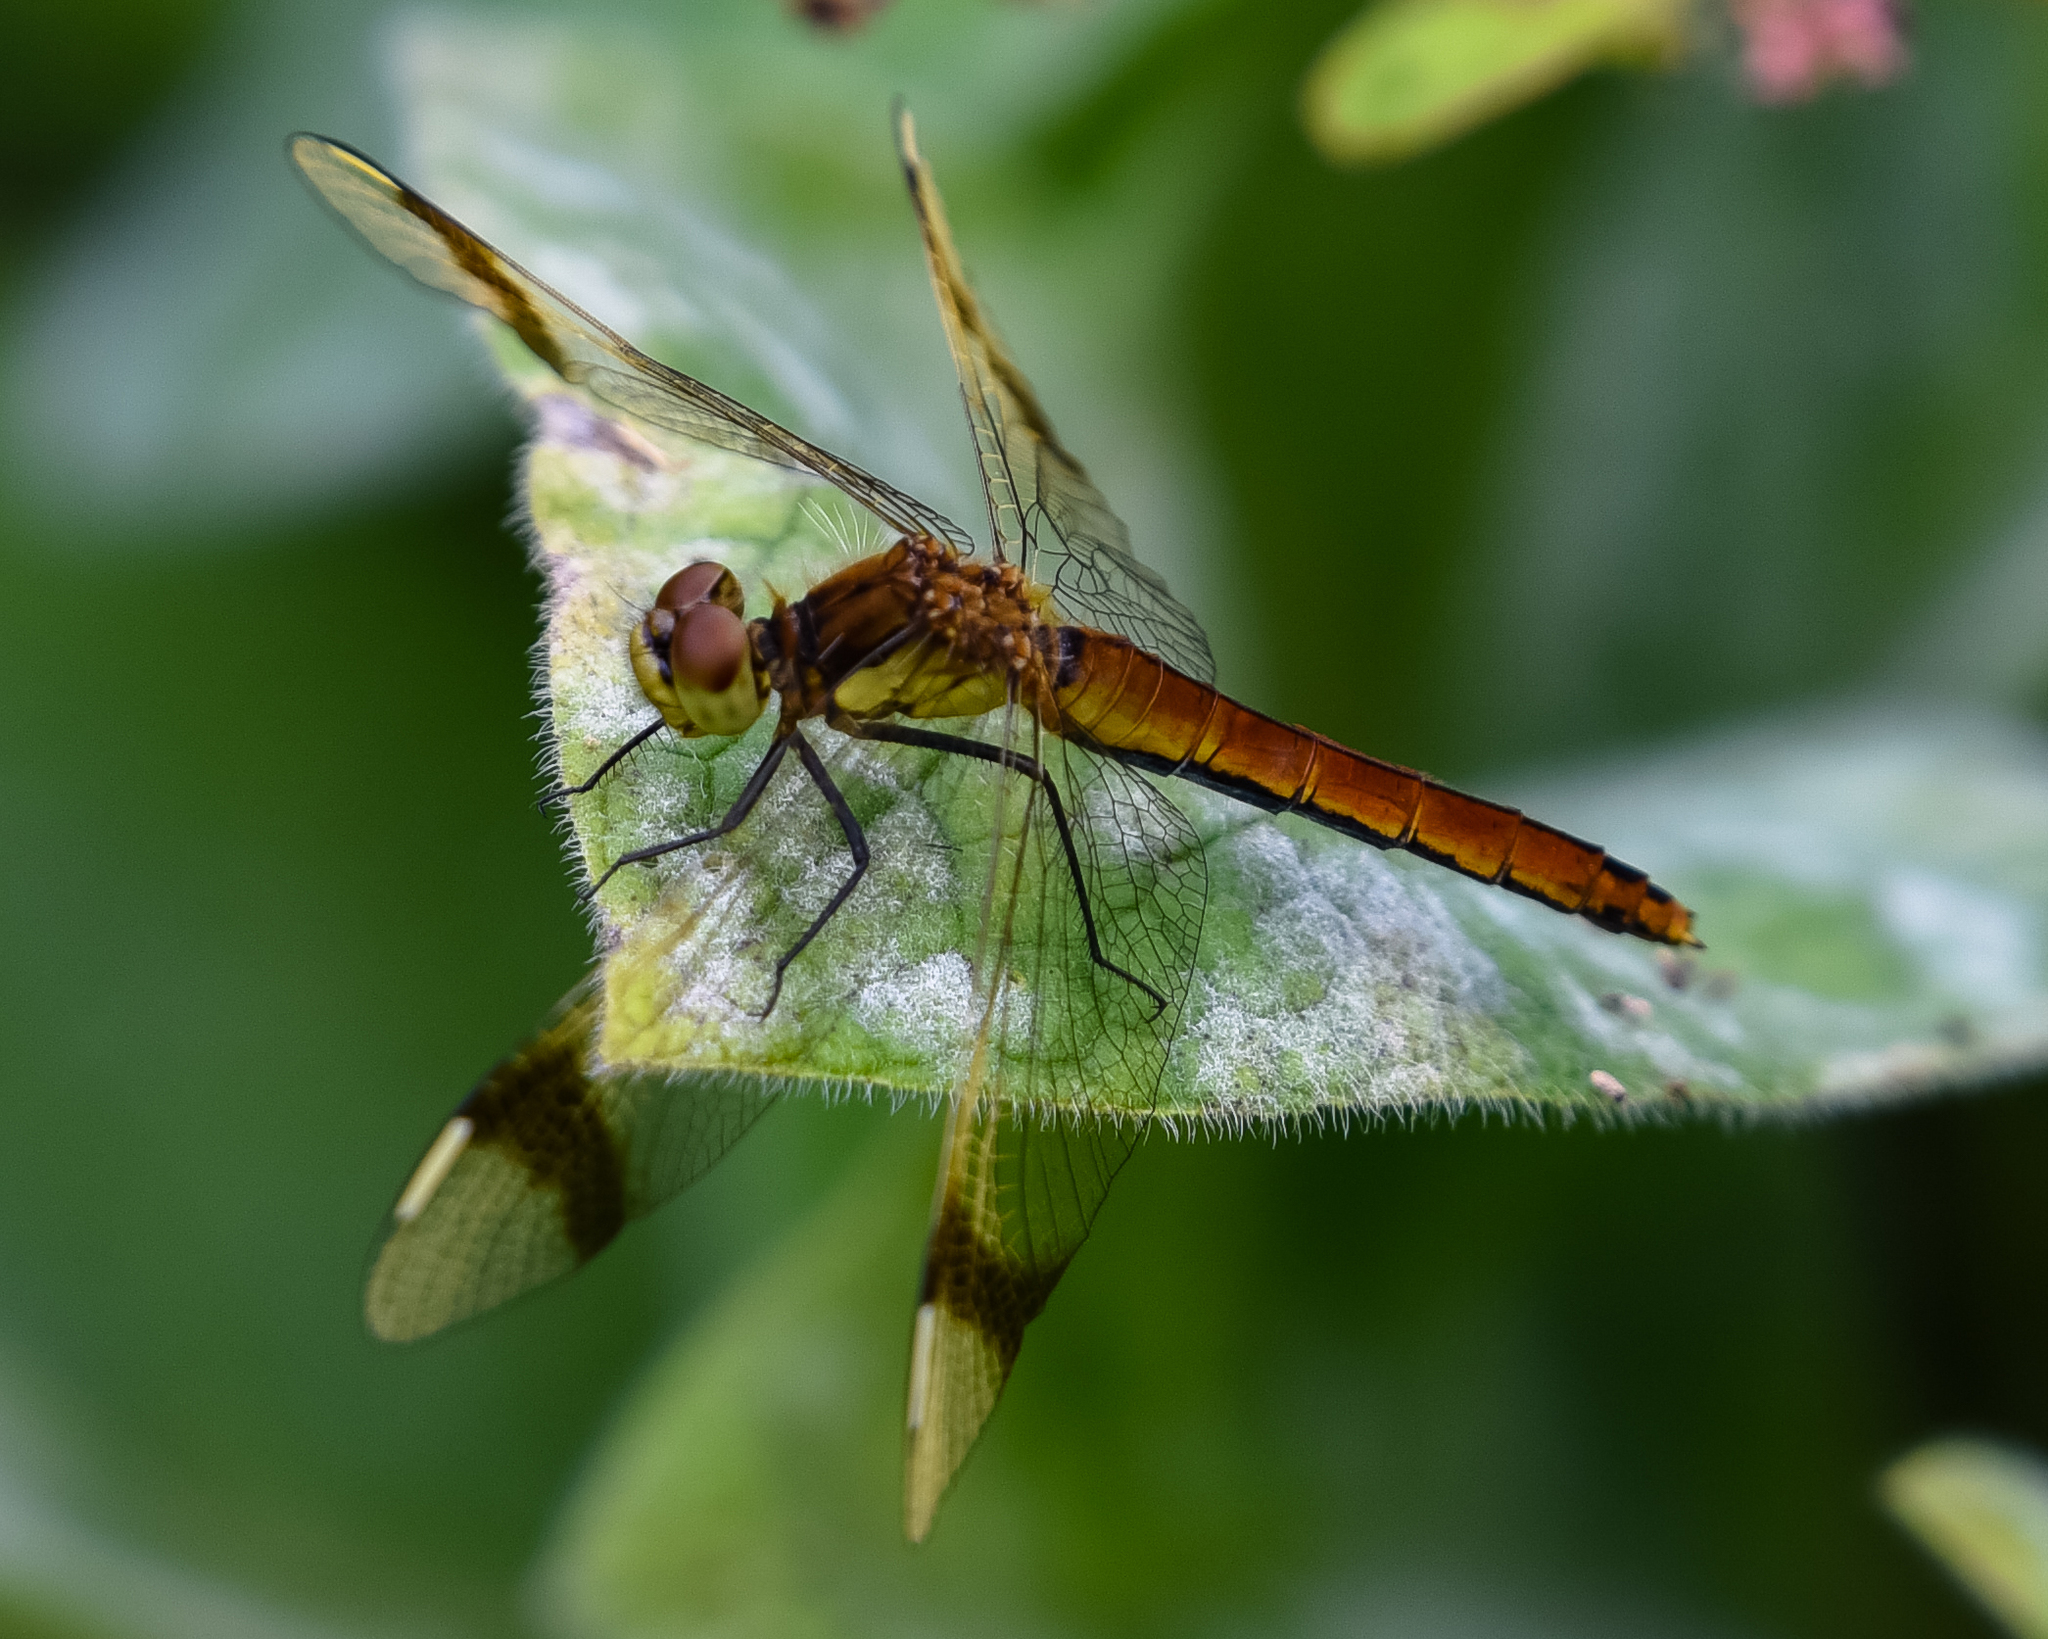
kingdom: Animalia
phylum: Arthropoda
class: Insecta
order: Odonata
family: Libellulidae
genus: Sympetrum
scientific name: Sympetrum pedemontanum
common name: Banded darter
